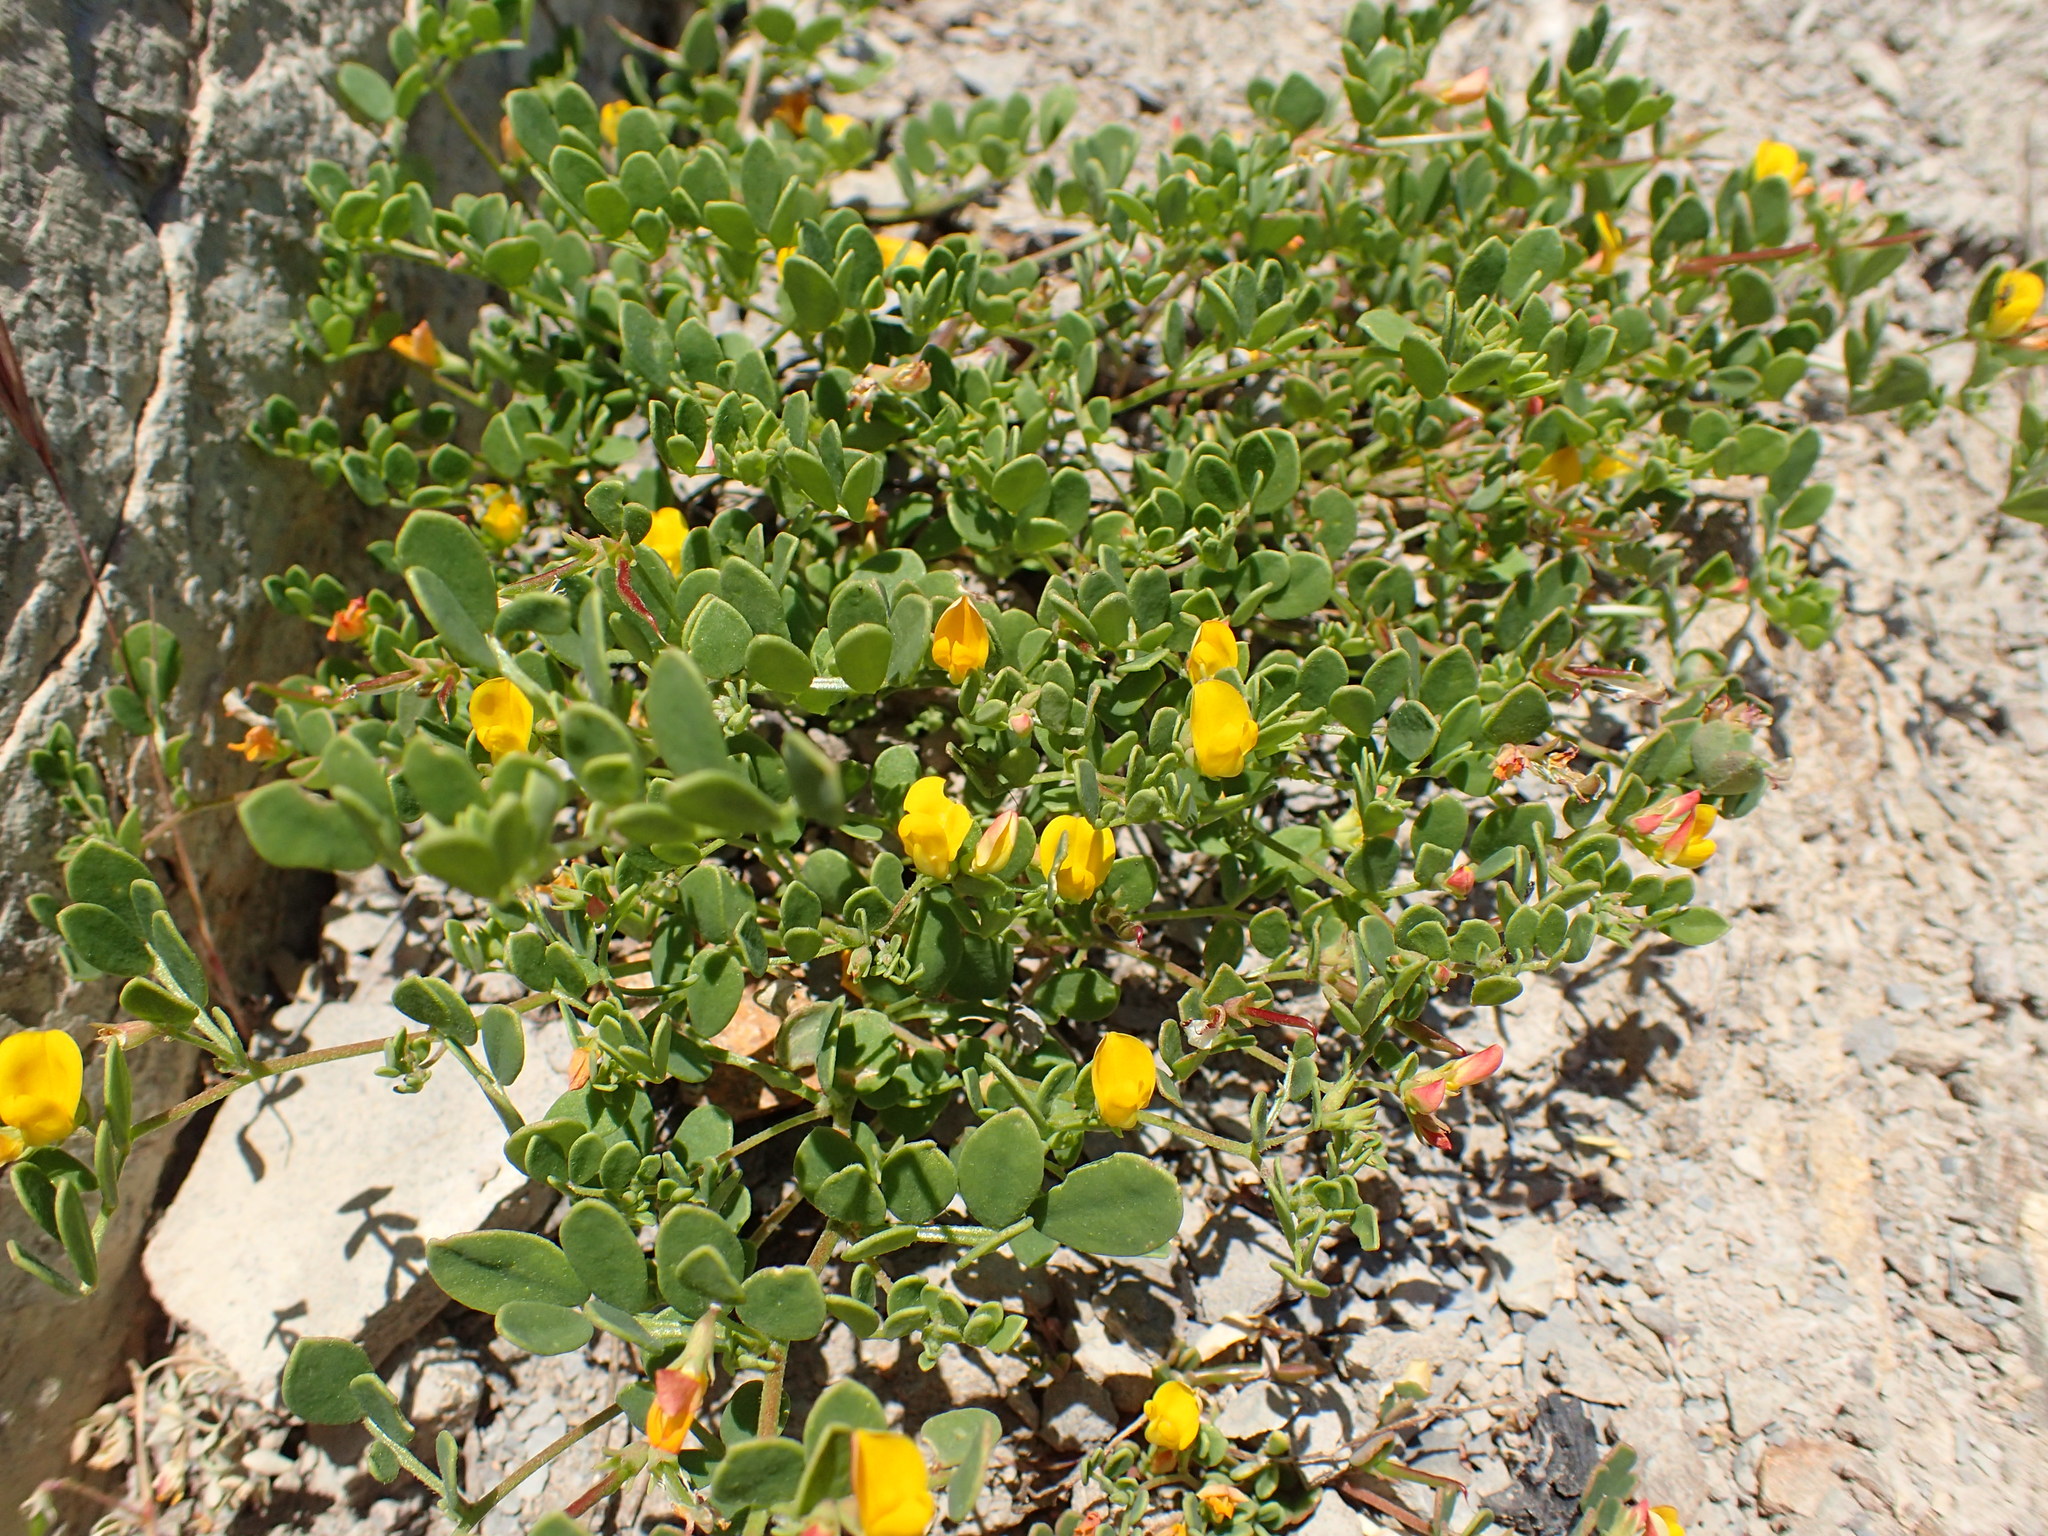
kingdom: Plantae
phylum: Tracheophyta
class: Magnoliopsida
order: Fabales
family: Fabaceae
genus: Acmispon
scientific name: Acmispon maritimus
